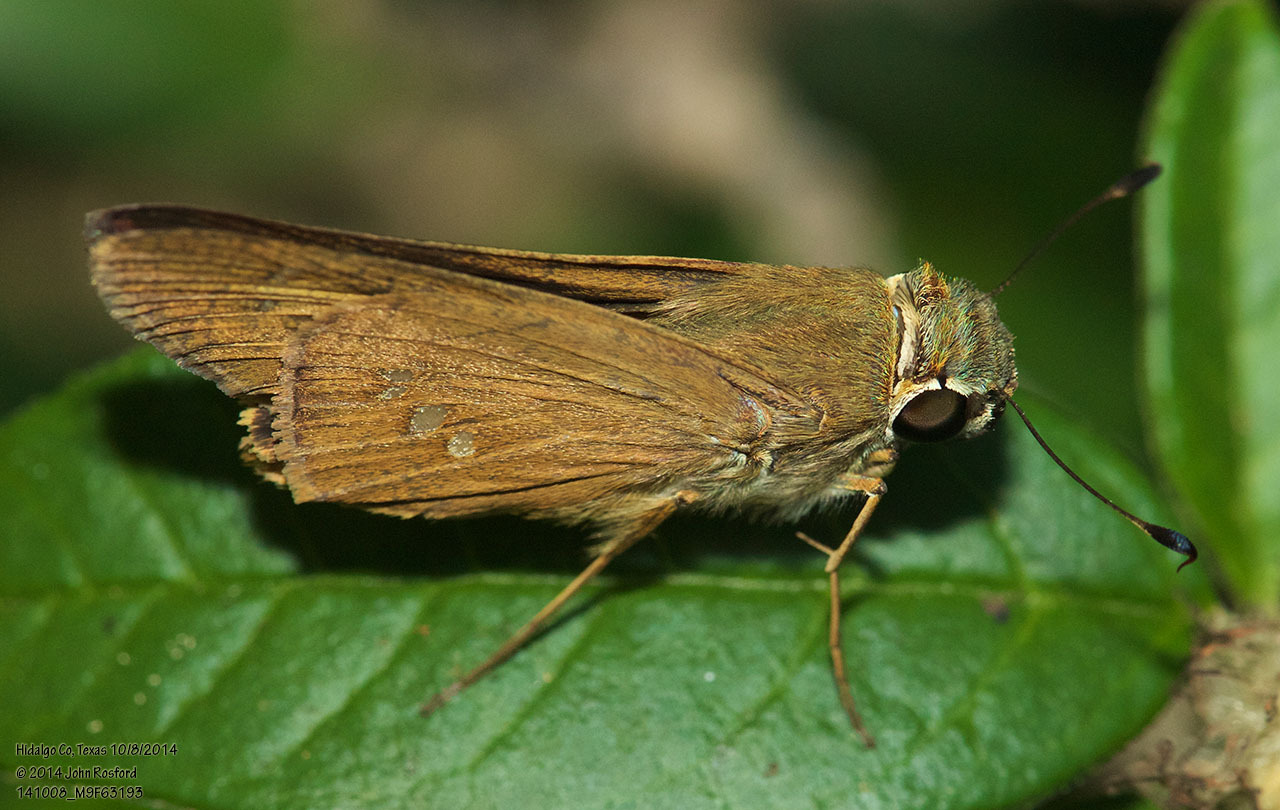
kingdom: Animalia
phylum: Arthropoda
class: Insecta
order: Lepidoptera
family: Hesperiidae
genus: Calpodes
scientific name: Calpodes ethlius
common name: Brazilian skipper
